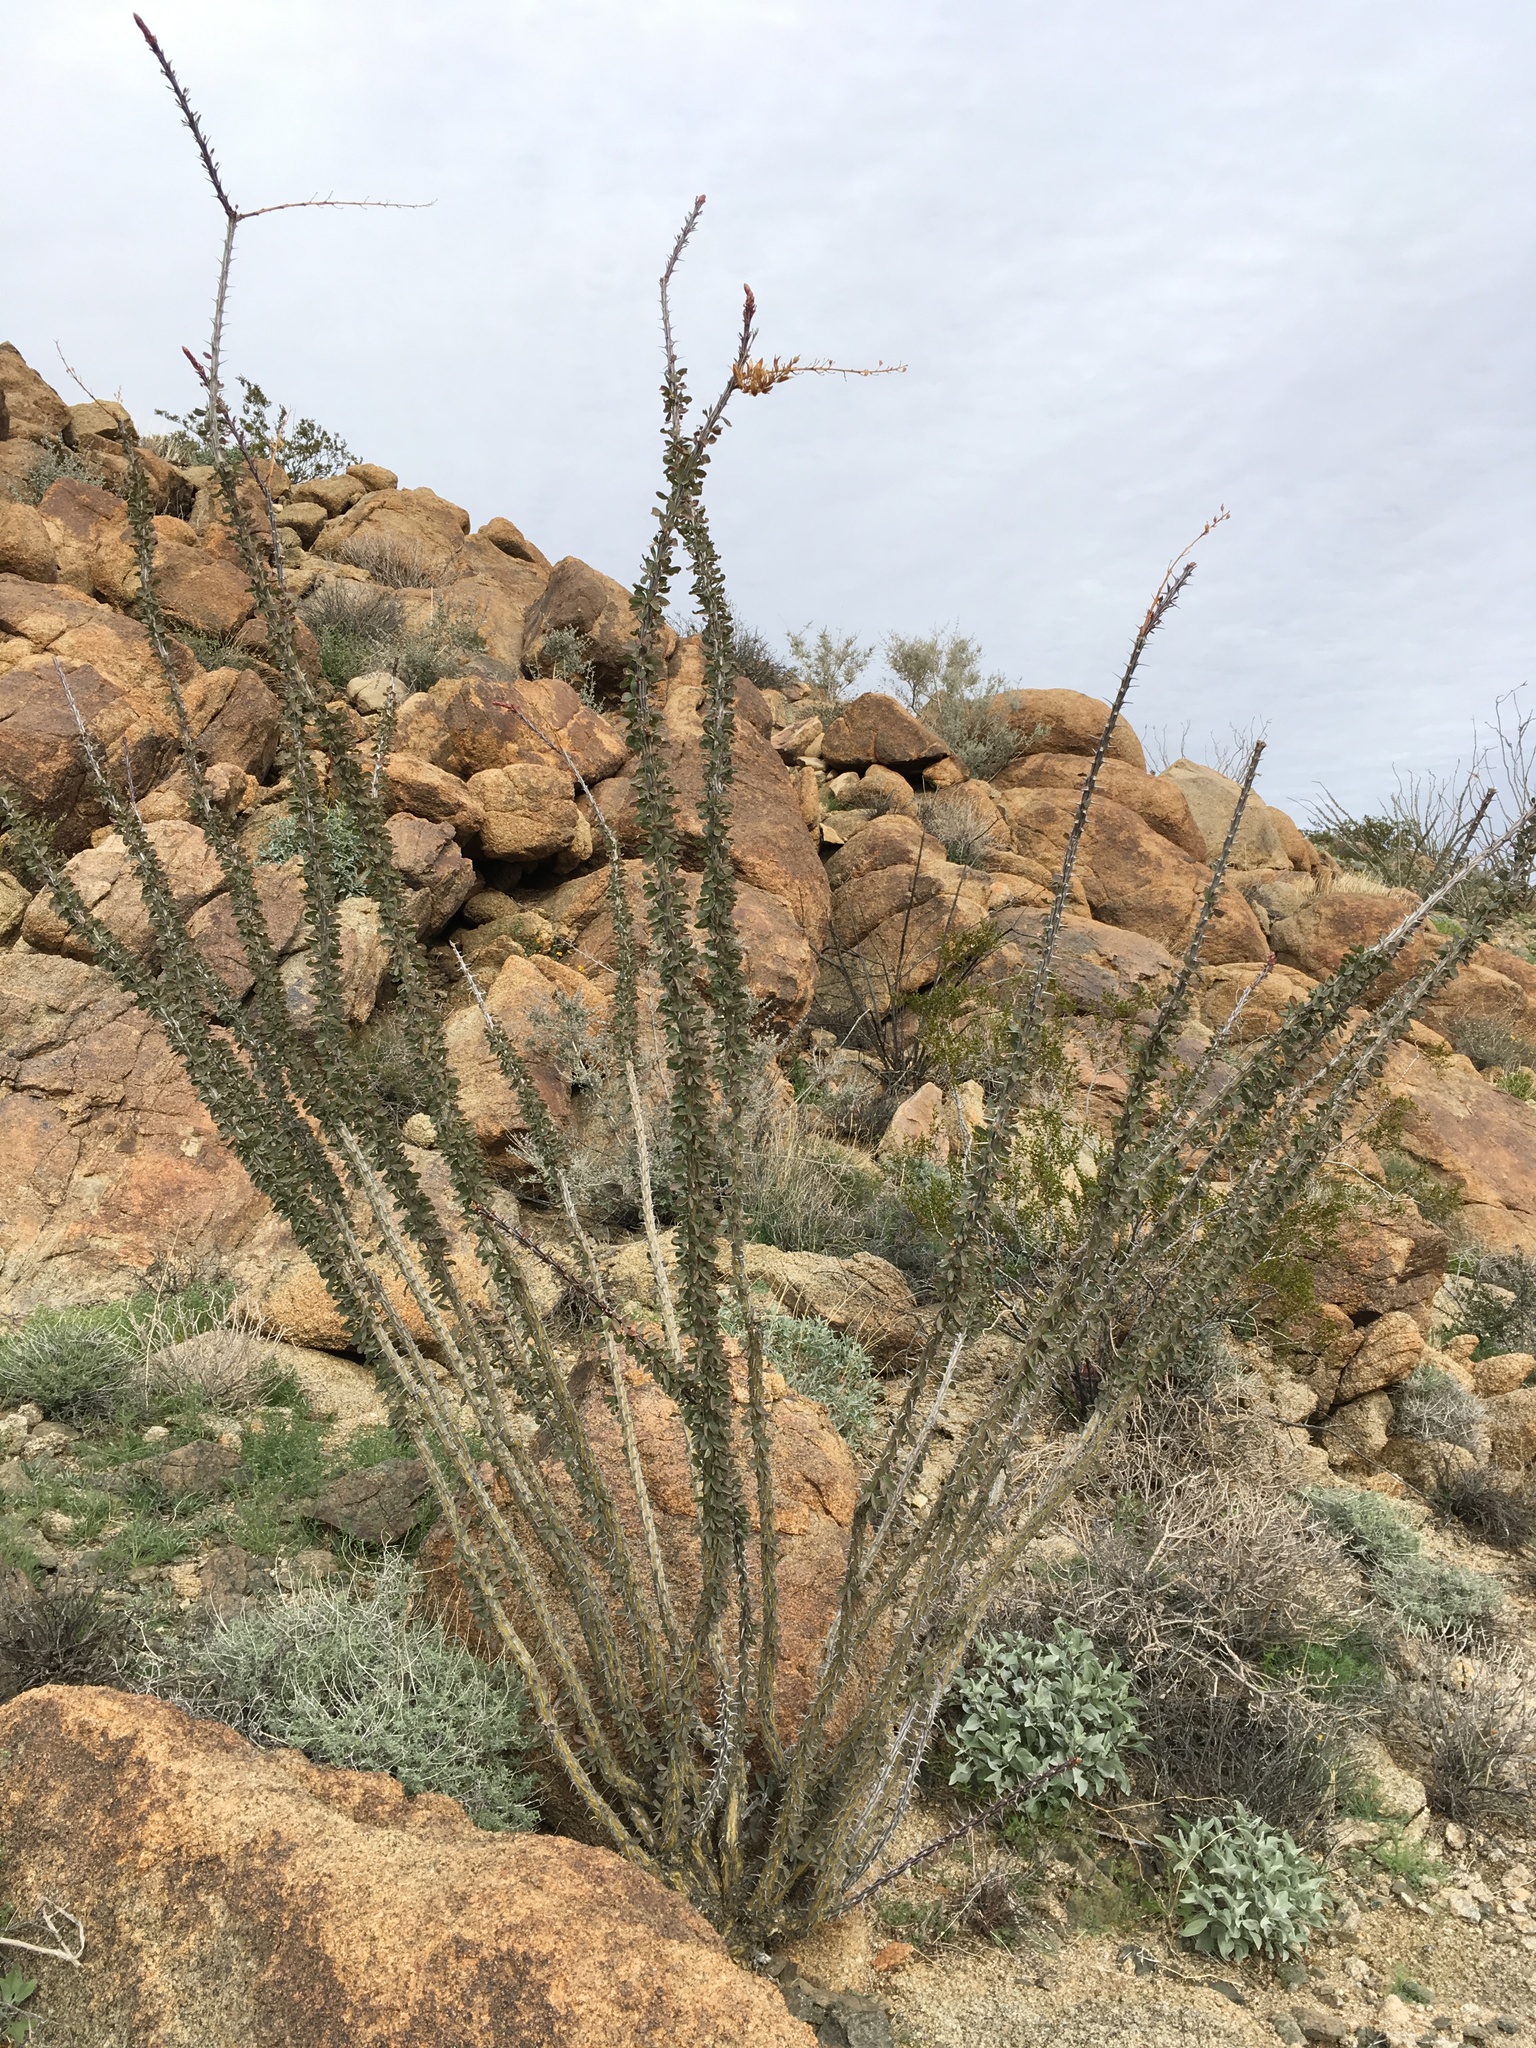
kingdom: Plantae
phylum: Tracheophyta
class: Magnoliopsida
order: Ericales
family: Fouquieriaceae
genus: Fouquieria
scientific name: Fouquieria splendens
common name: Vine-cactus
